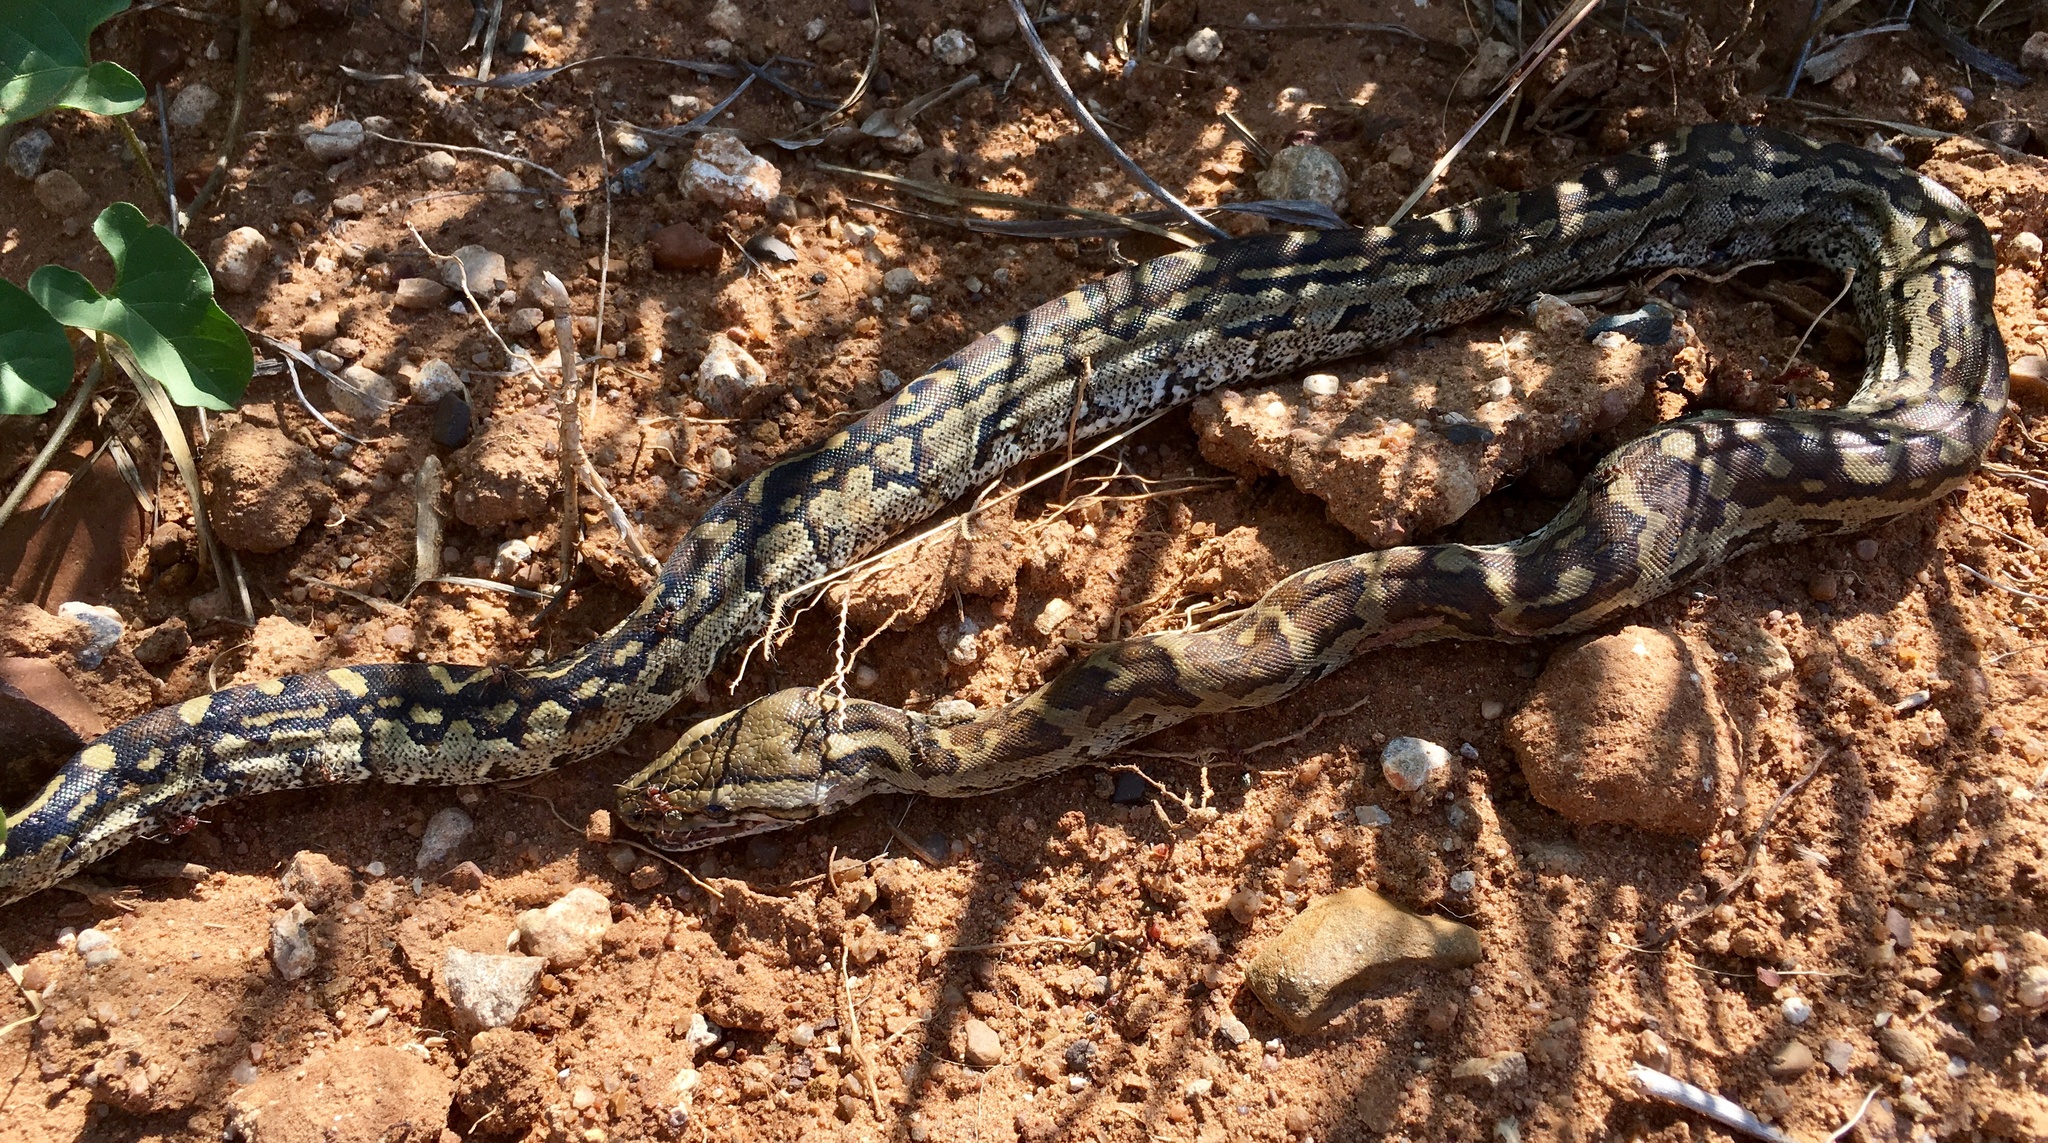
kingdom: Animalia
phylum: Chordata
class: Squamata
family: Pythonidae
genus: Python
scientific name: Python natalensis
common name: Southern african rock python
